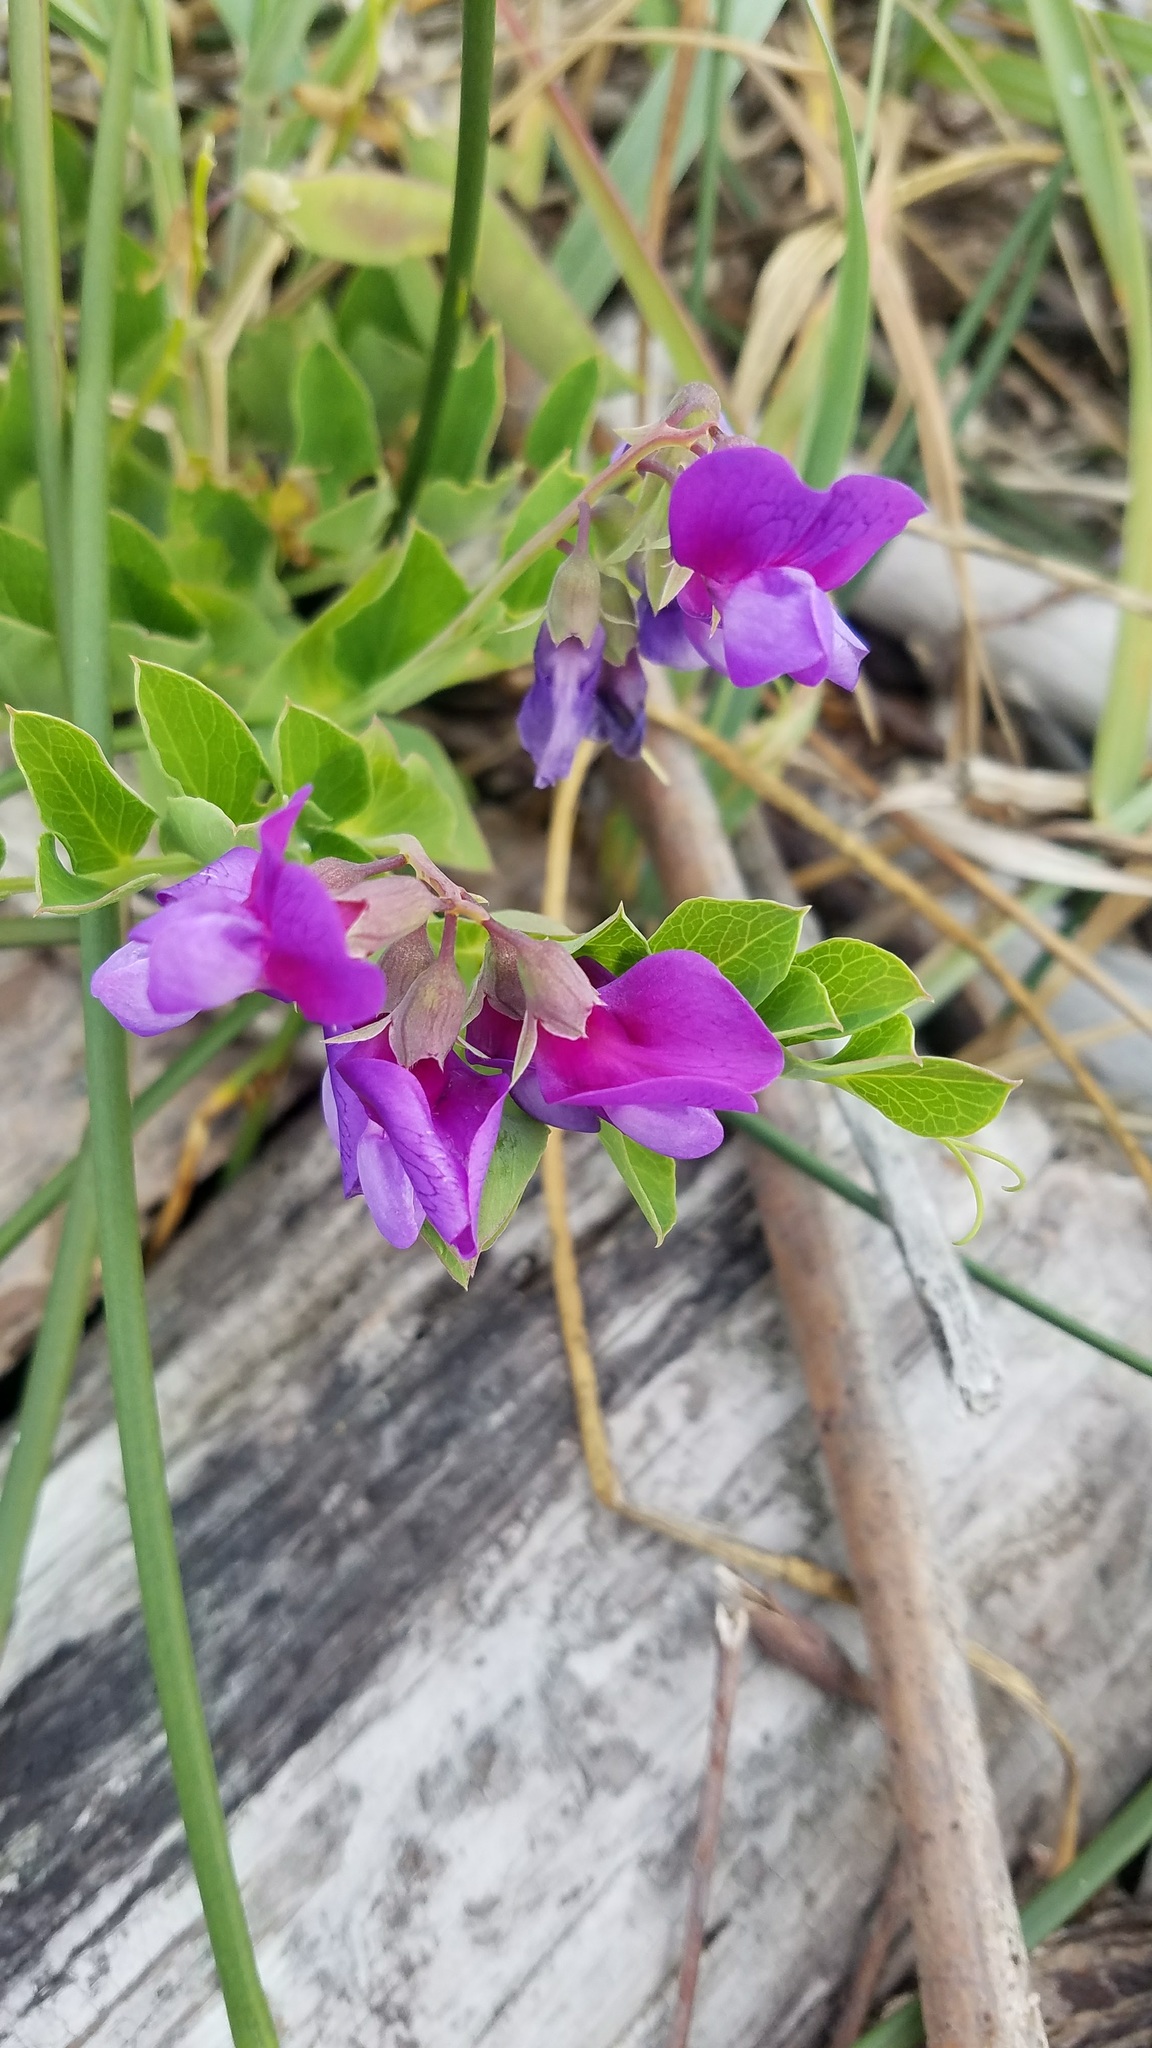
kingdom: Plantae
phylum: Tracheophyta
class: Magnoliopsida
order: Fabales
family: Fabaceae
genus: Lathyrus
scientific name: Lathyrus japonicus
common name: Sea pea
